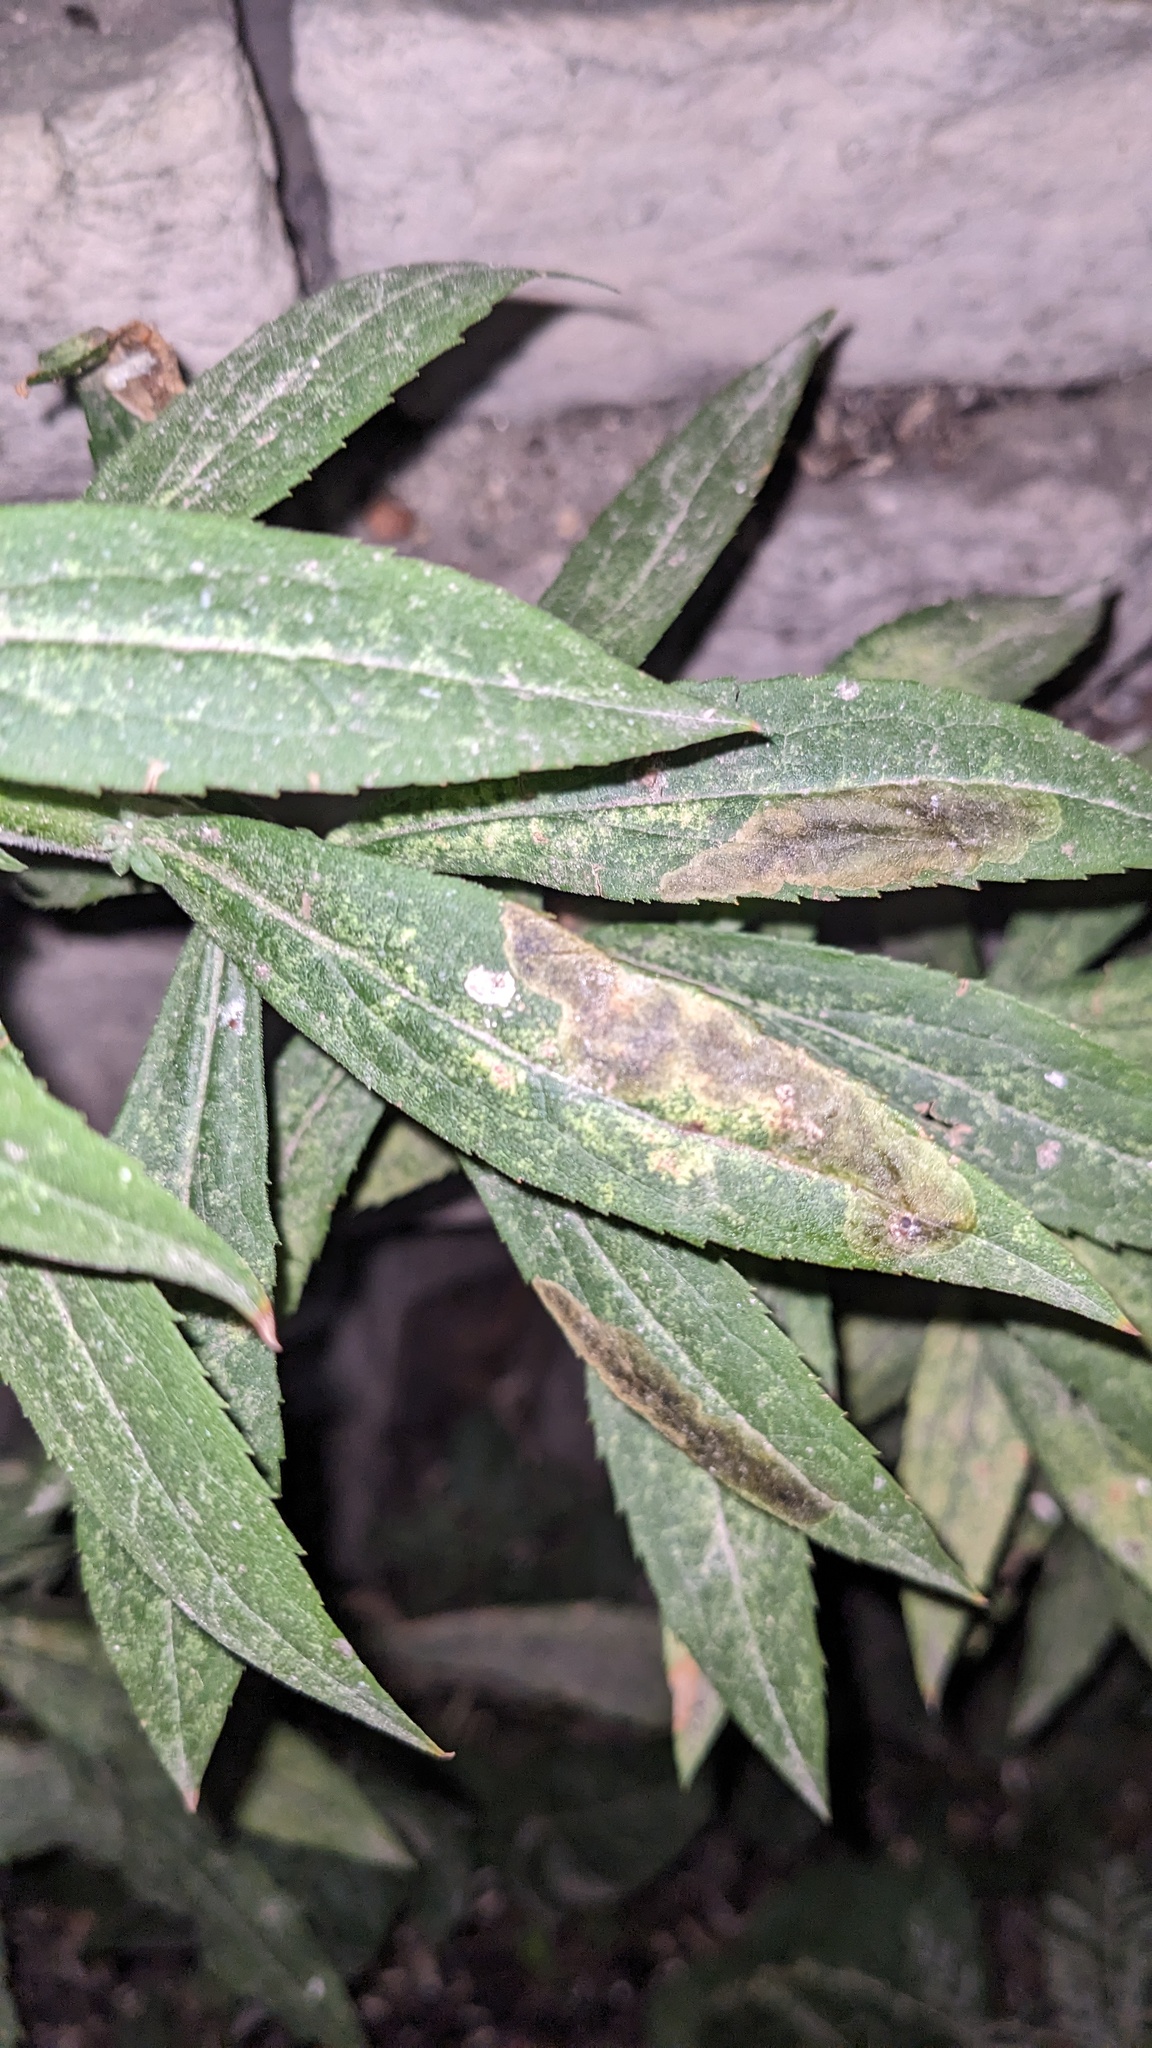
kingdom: Animalia
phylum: Arthropoda
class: Insecta
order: Diptera
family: Agromyzidae
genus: Nemorimyza
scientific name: Nemorimyza posticata
